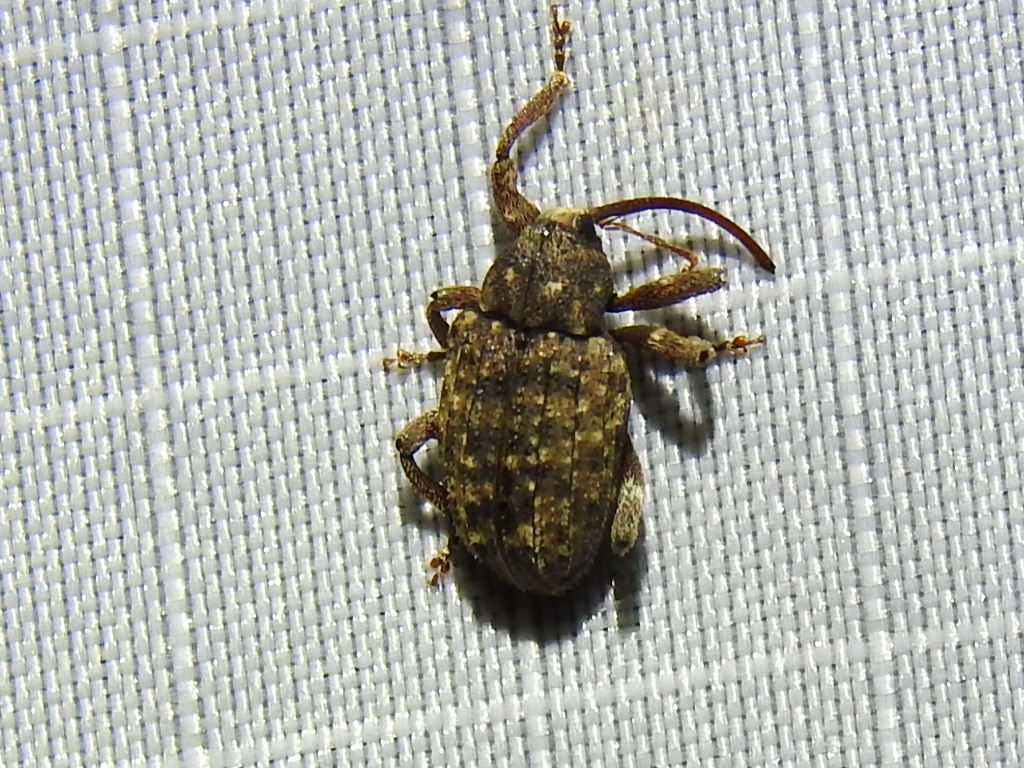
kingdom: Animalia
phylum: Arthropoda
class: Insecta
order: Coleoptera
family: Curculionidae
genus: Conotrachelus
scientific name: Conotrachelus naso
